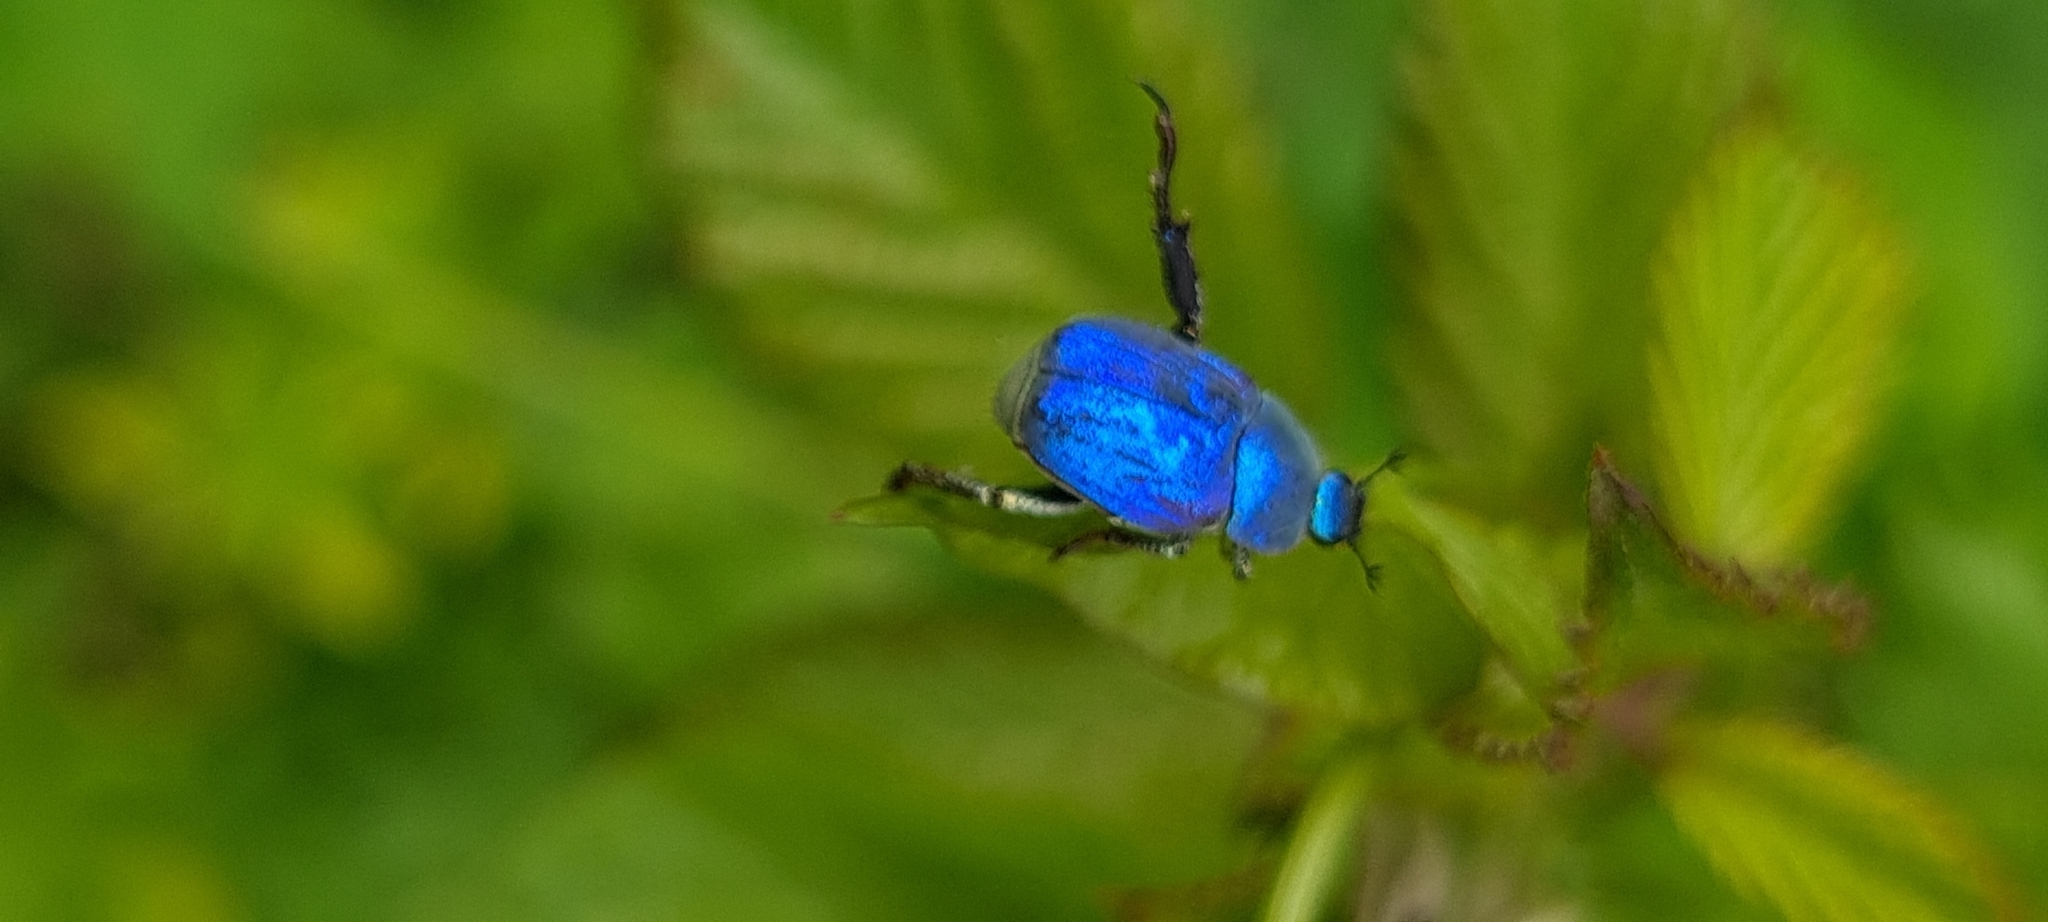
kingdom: Animalia
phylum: Arthropoda
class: Insecta
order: Coleoptera
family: Scarabaeidae
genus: Hoplia
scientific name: Hoplia coerulea
